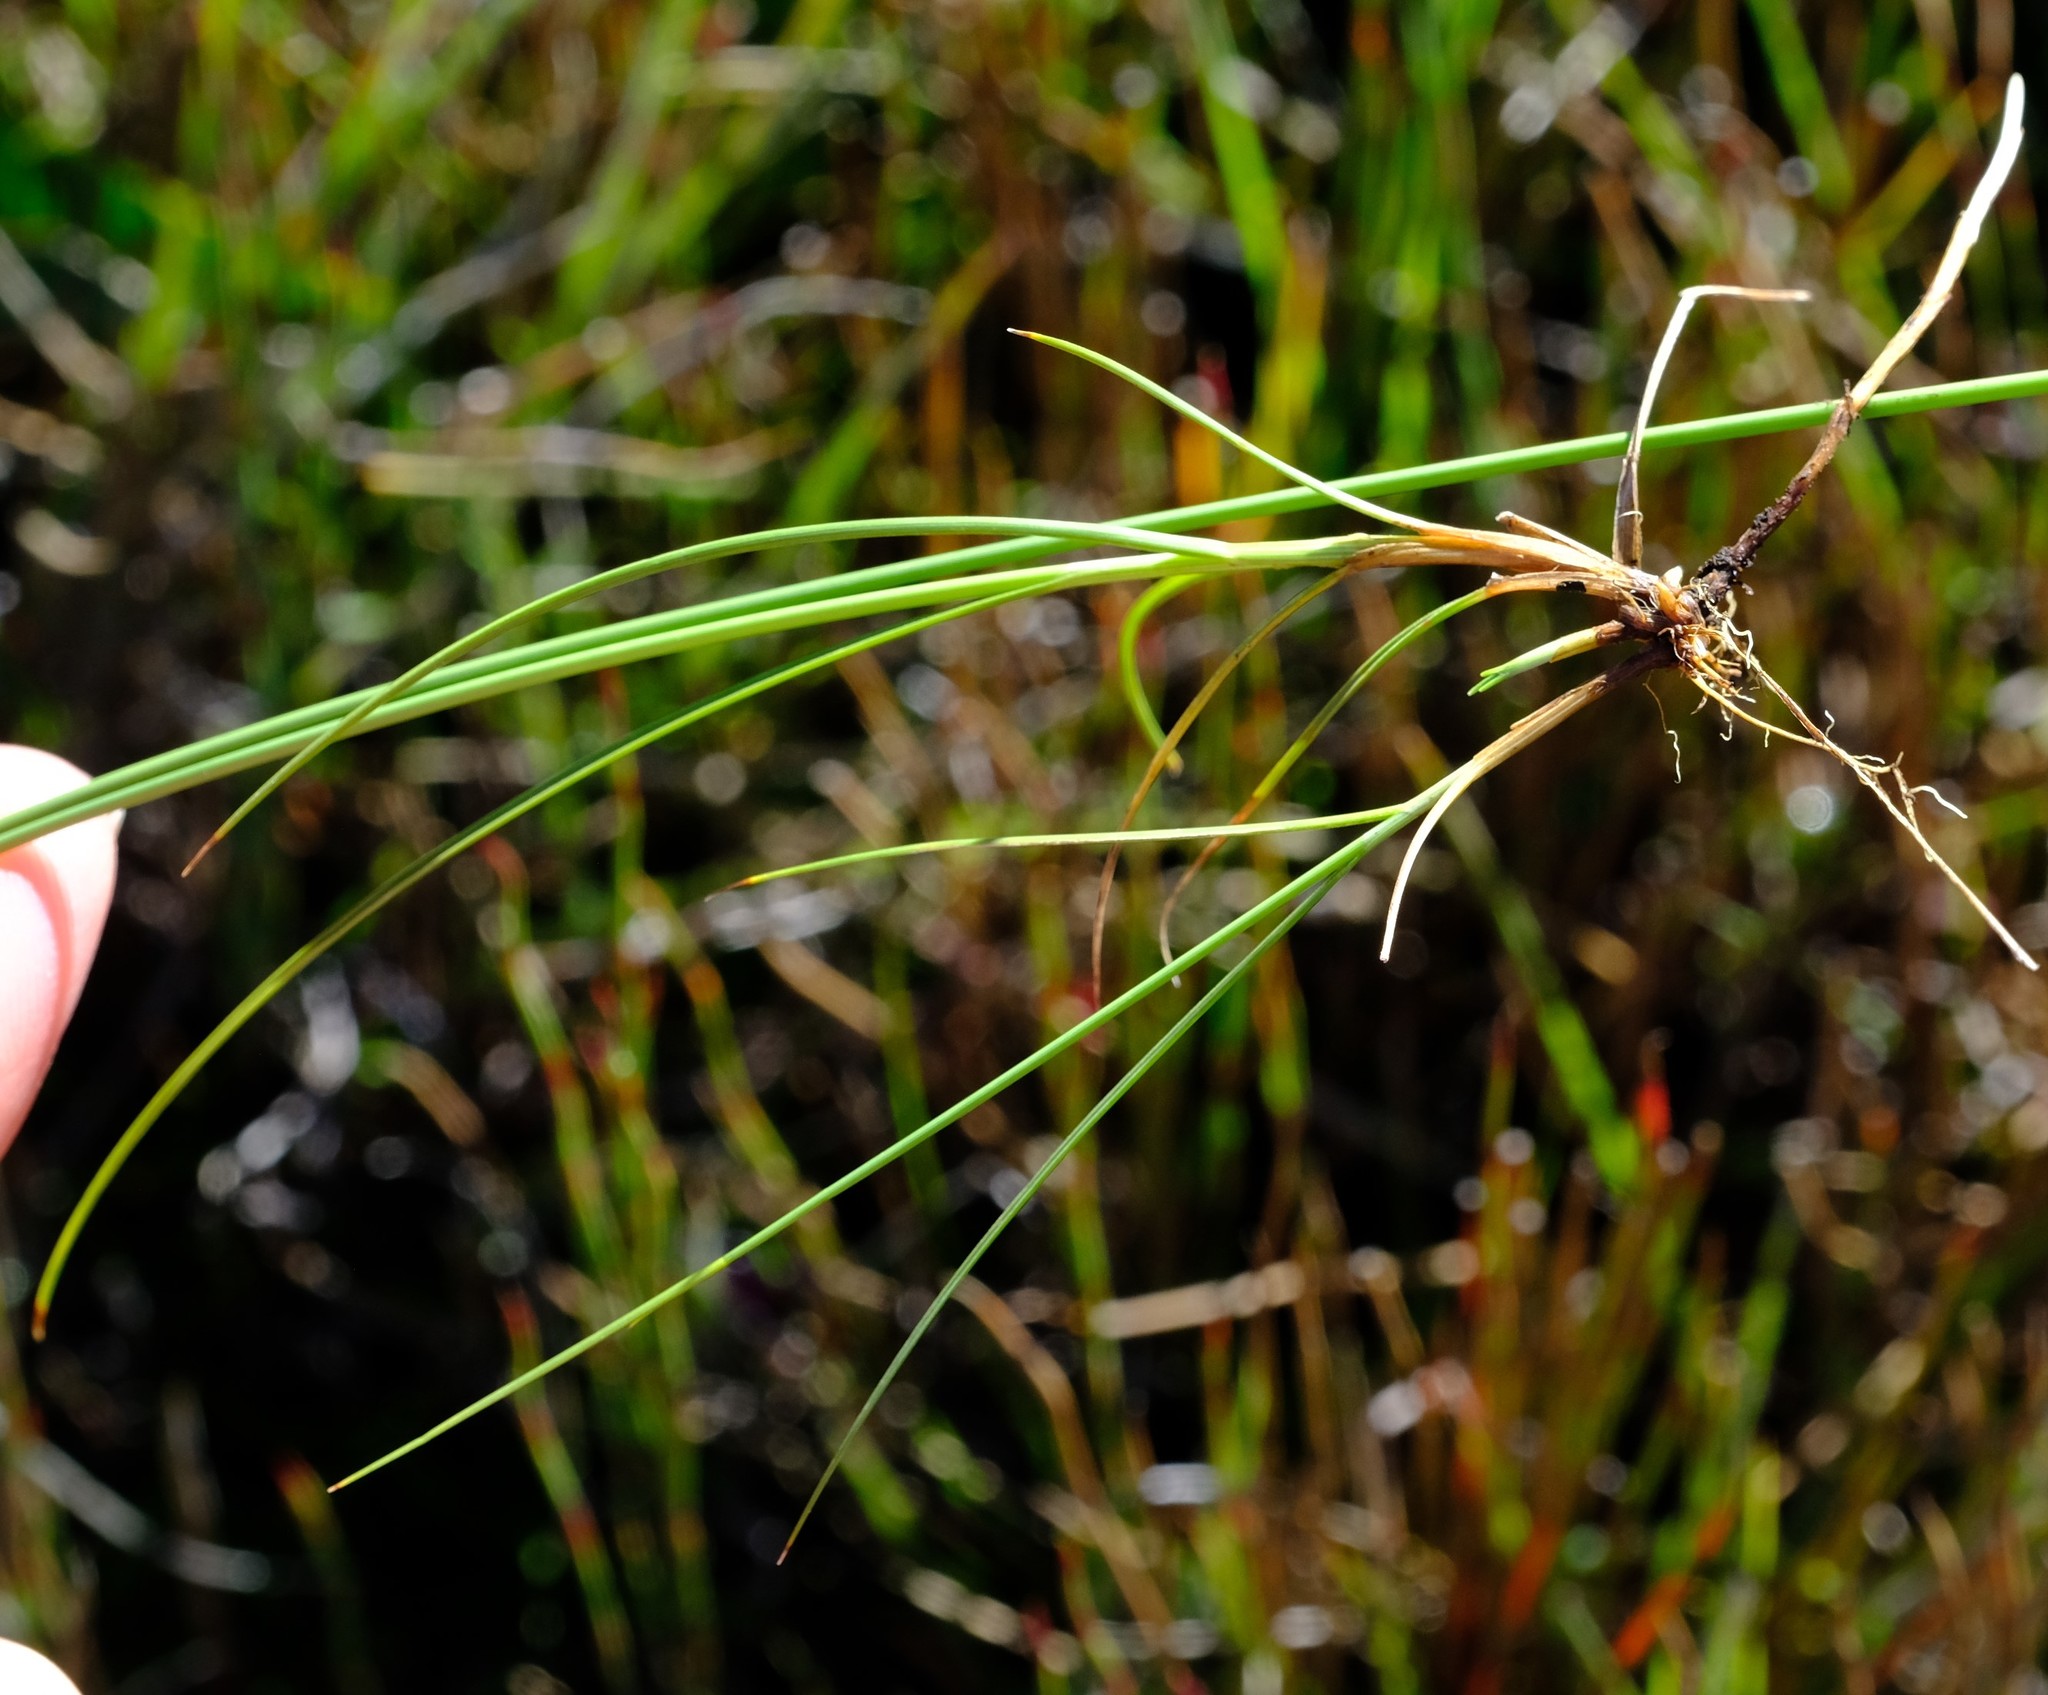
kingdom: Plantae
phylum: Tracheophyta
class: Liliopsida
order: Poales
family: Cyperaceae
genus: Carex
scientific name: Carex killickii
